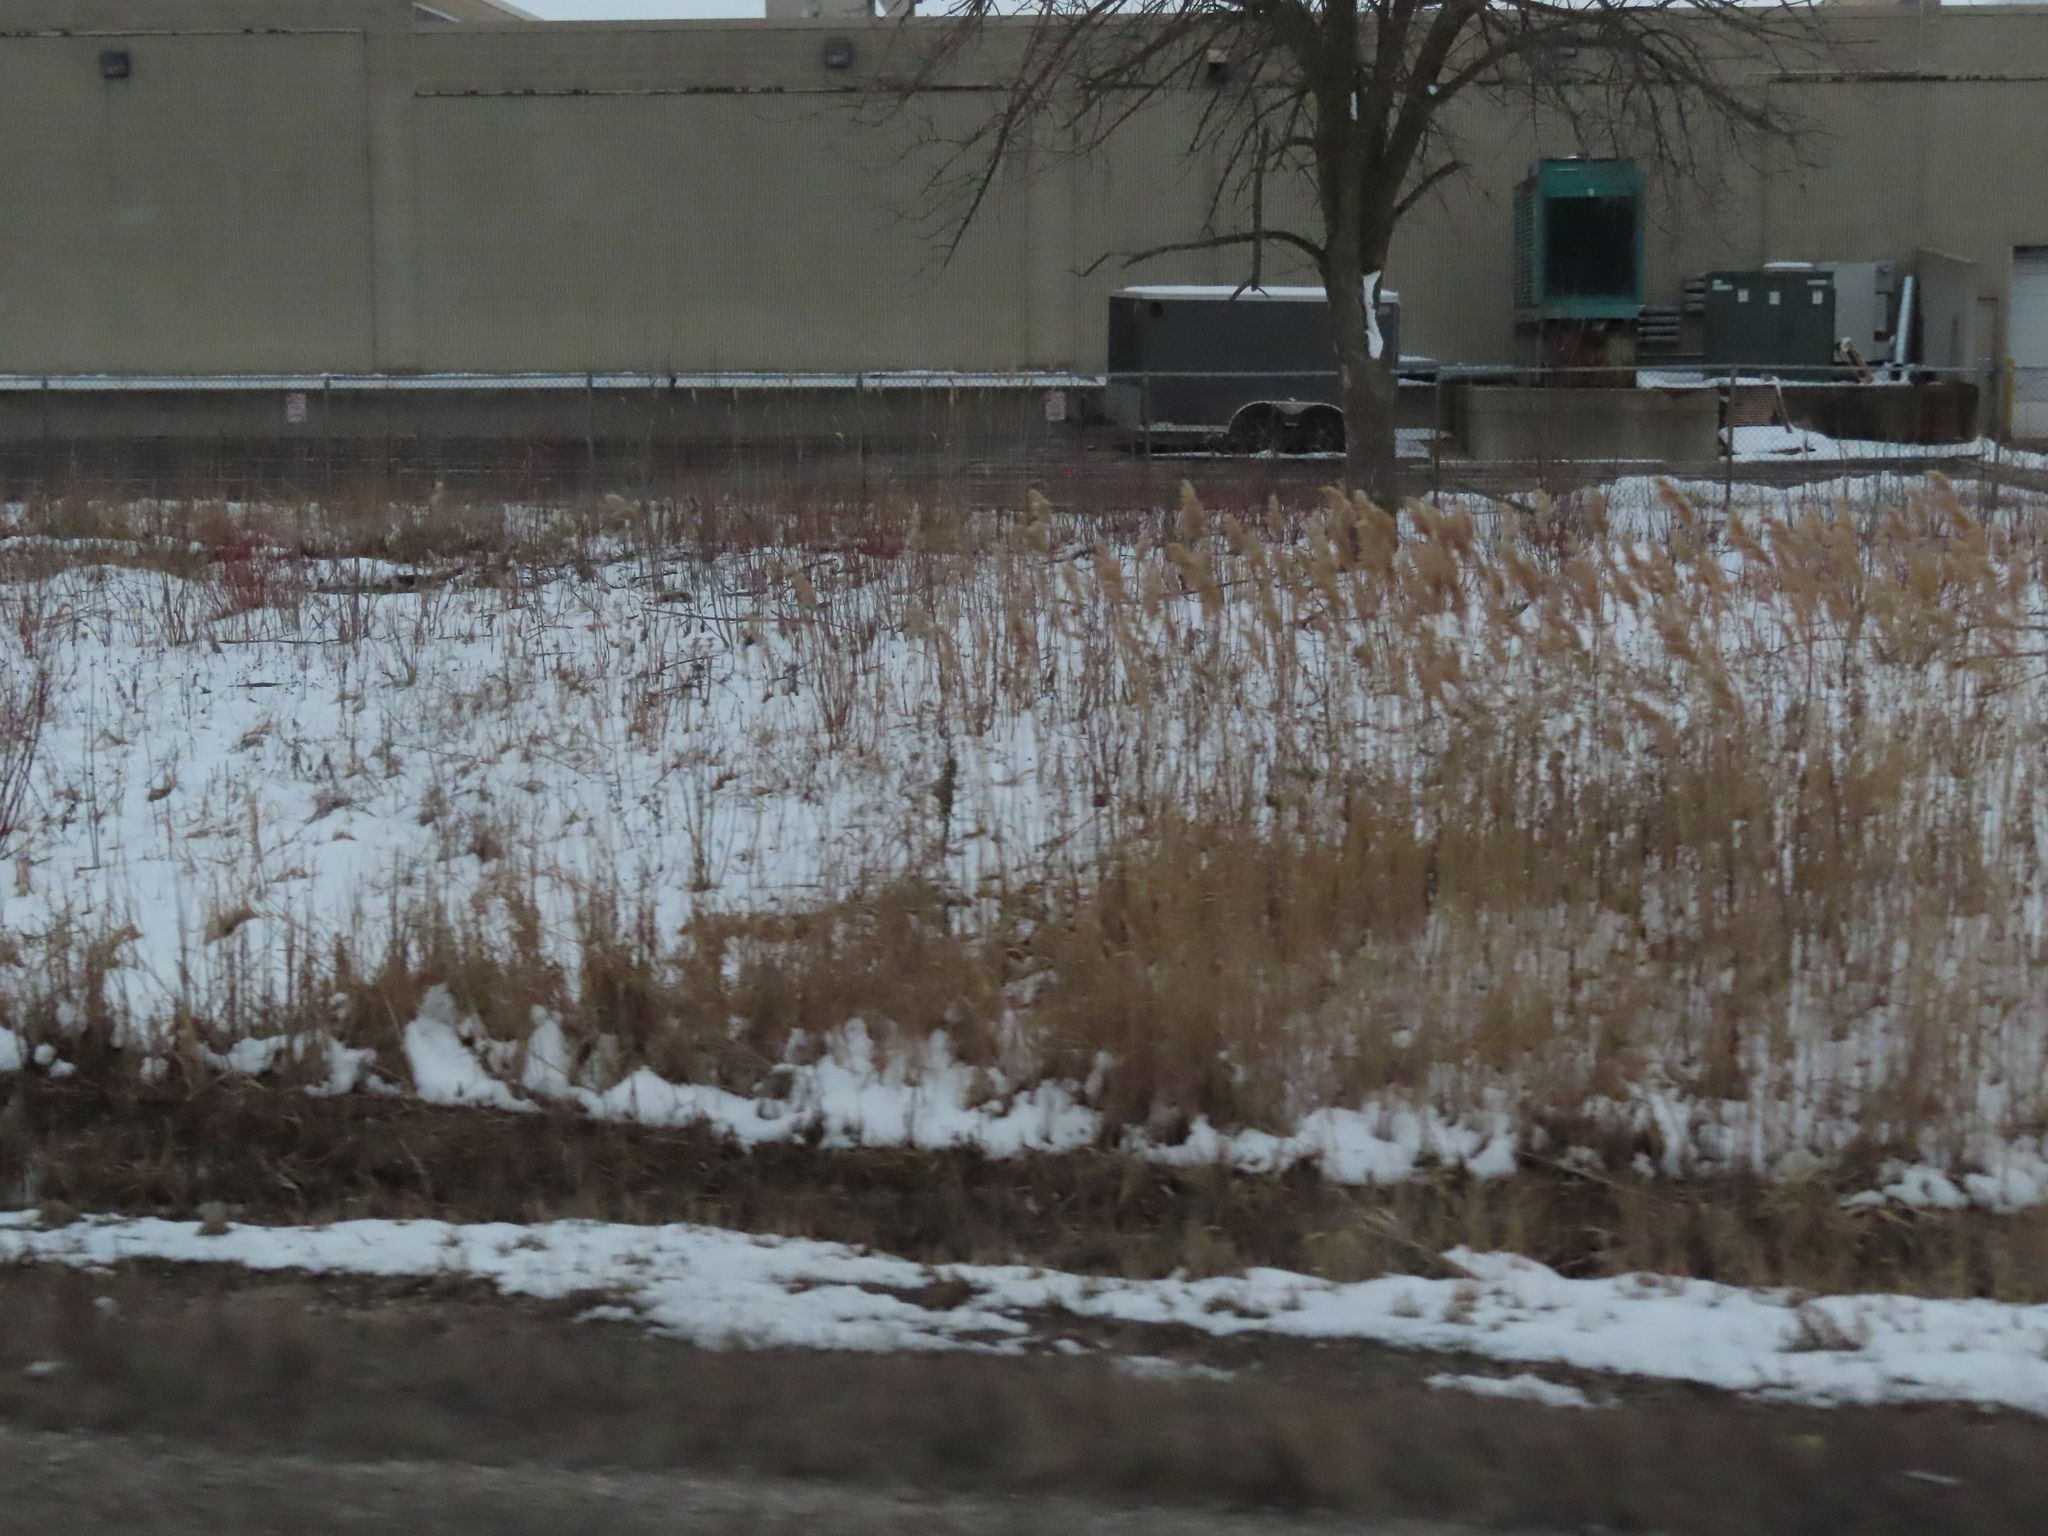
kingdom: Plantae
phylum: Tracheophyta
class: Liliopsida
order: Poales
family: Poaceae
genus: Phragmites
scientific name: Phragmites australis
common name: Common reed
